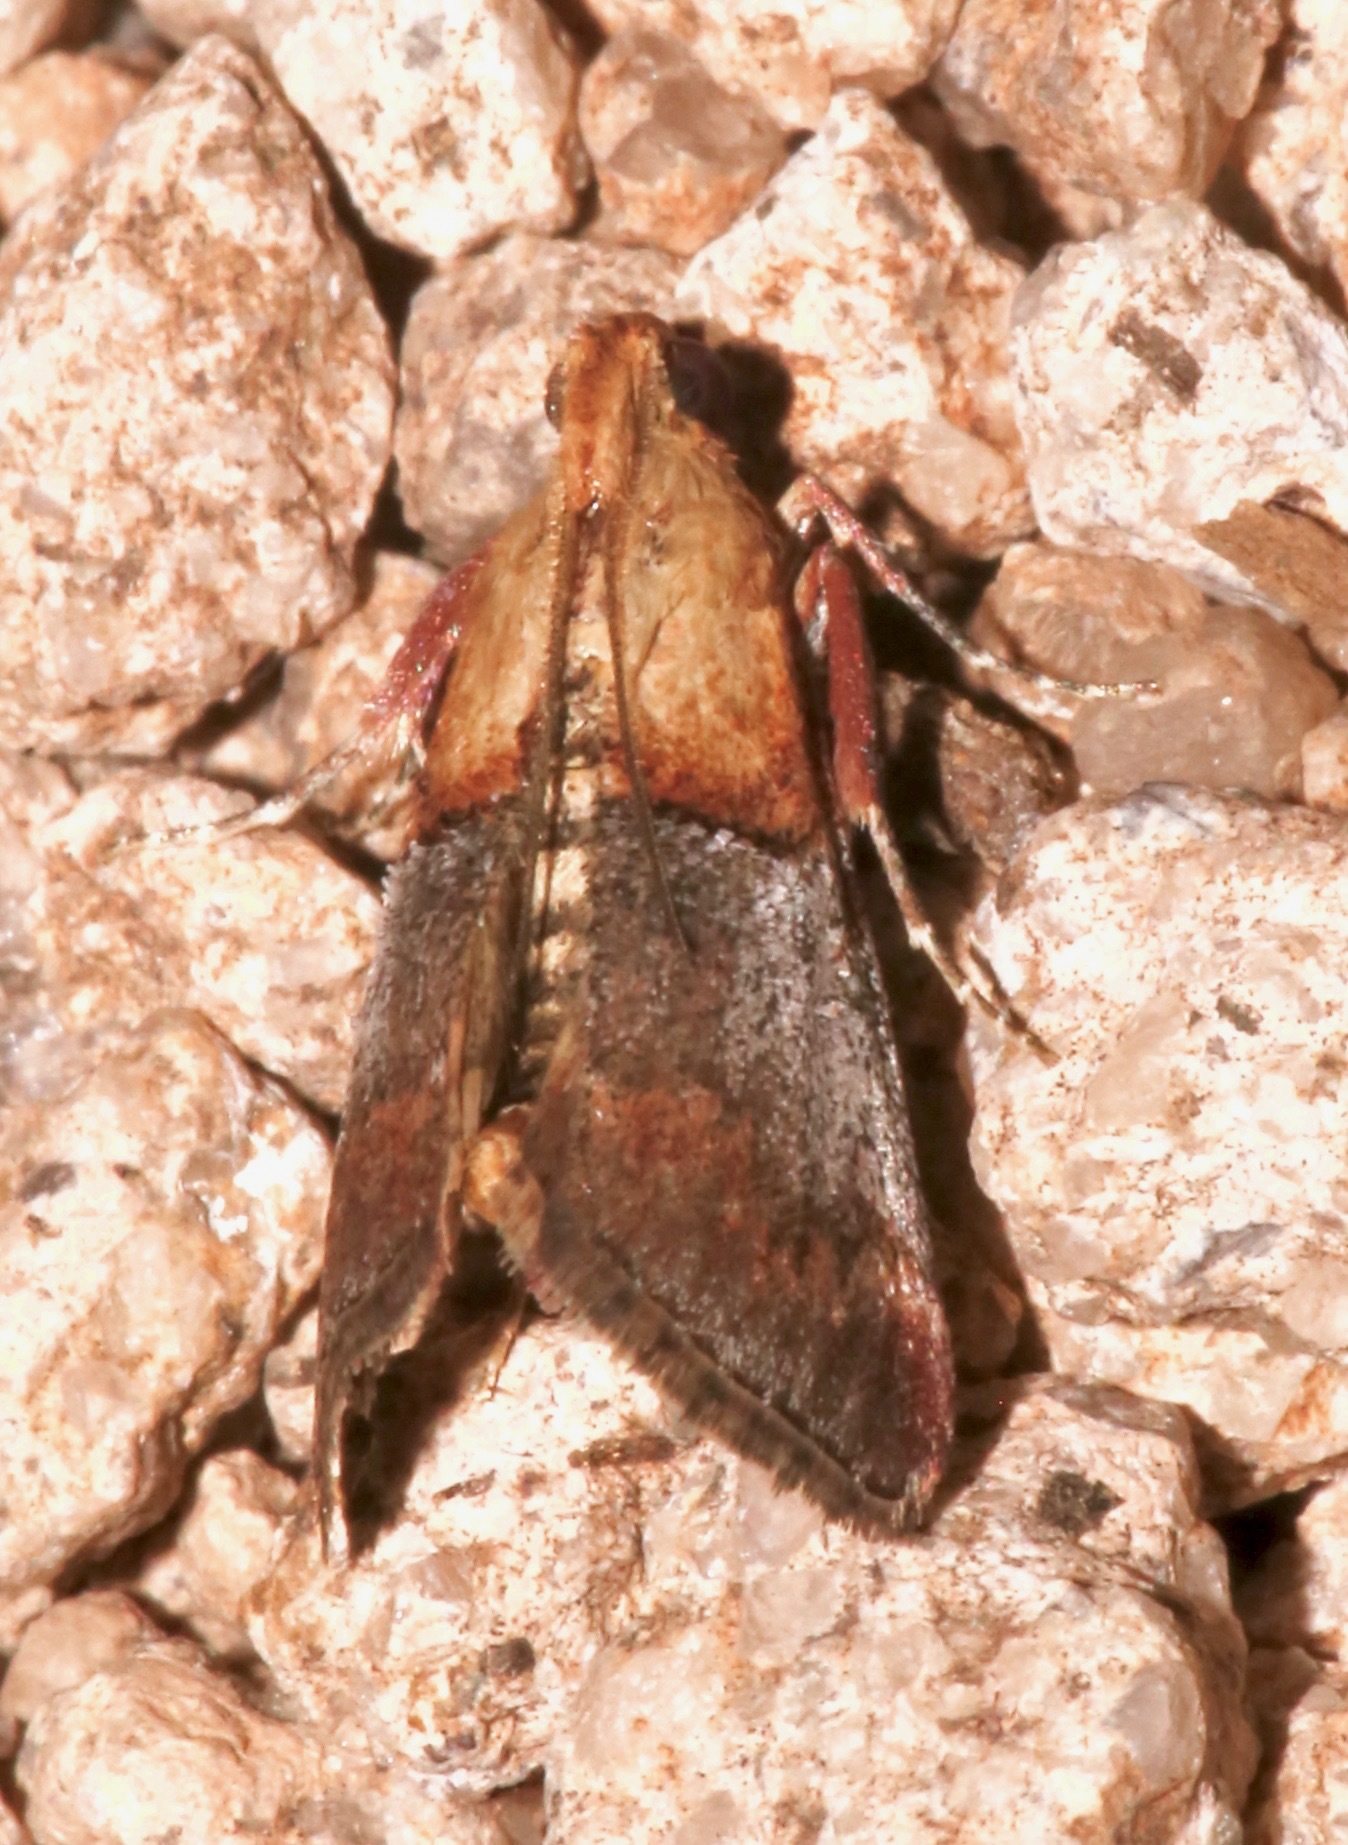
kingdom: Animalia
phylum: Arthropoda
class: Insecta
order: Lepidoptera
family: Pyralidae
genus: Cacozelia
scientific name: Cacozelia basiochrealis
